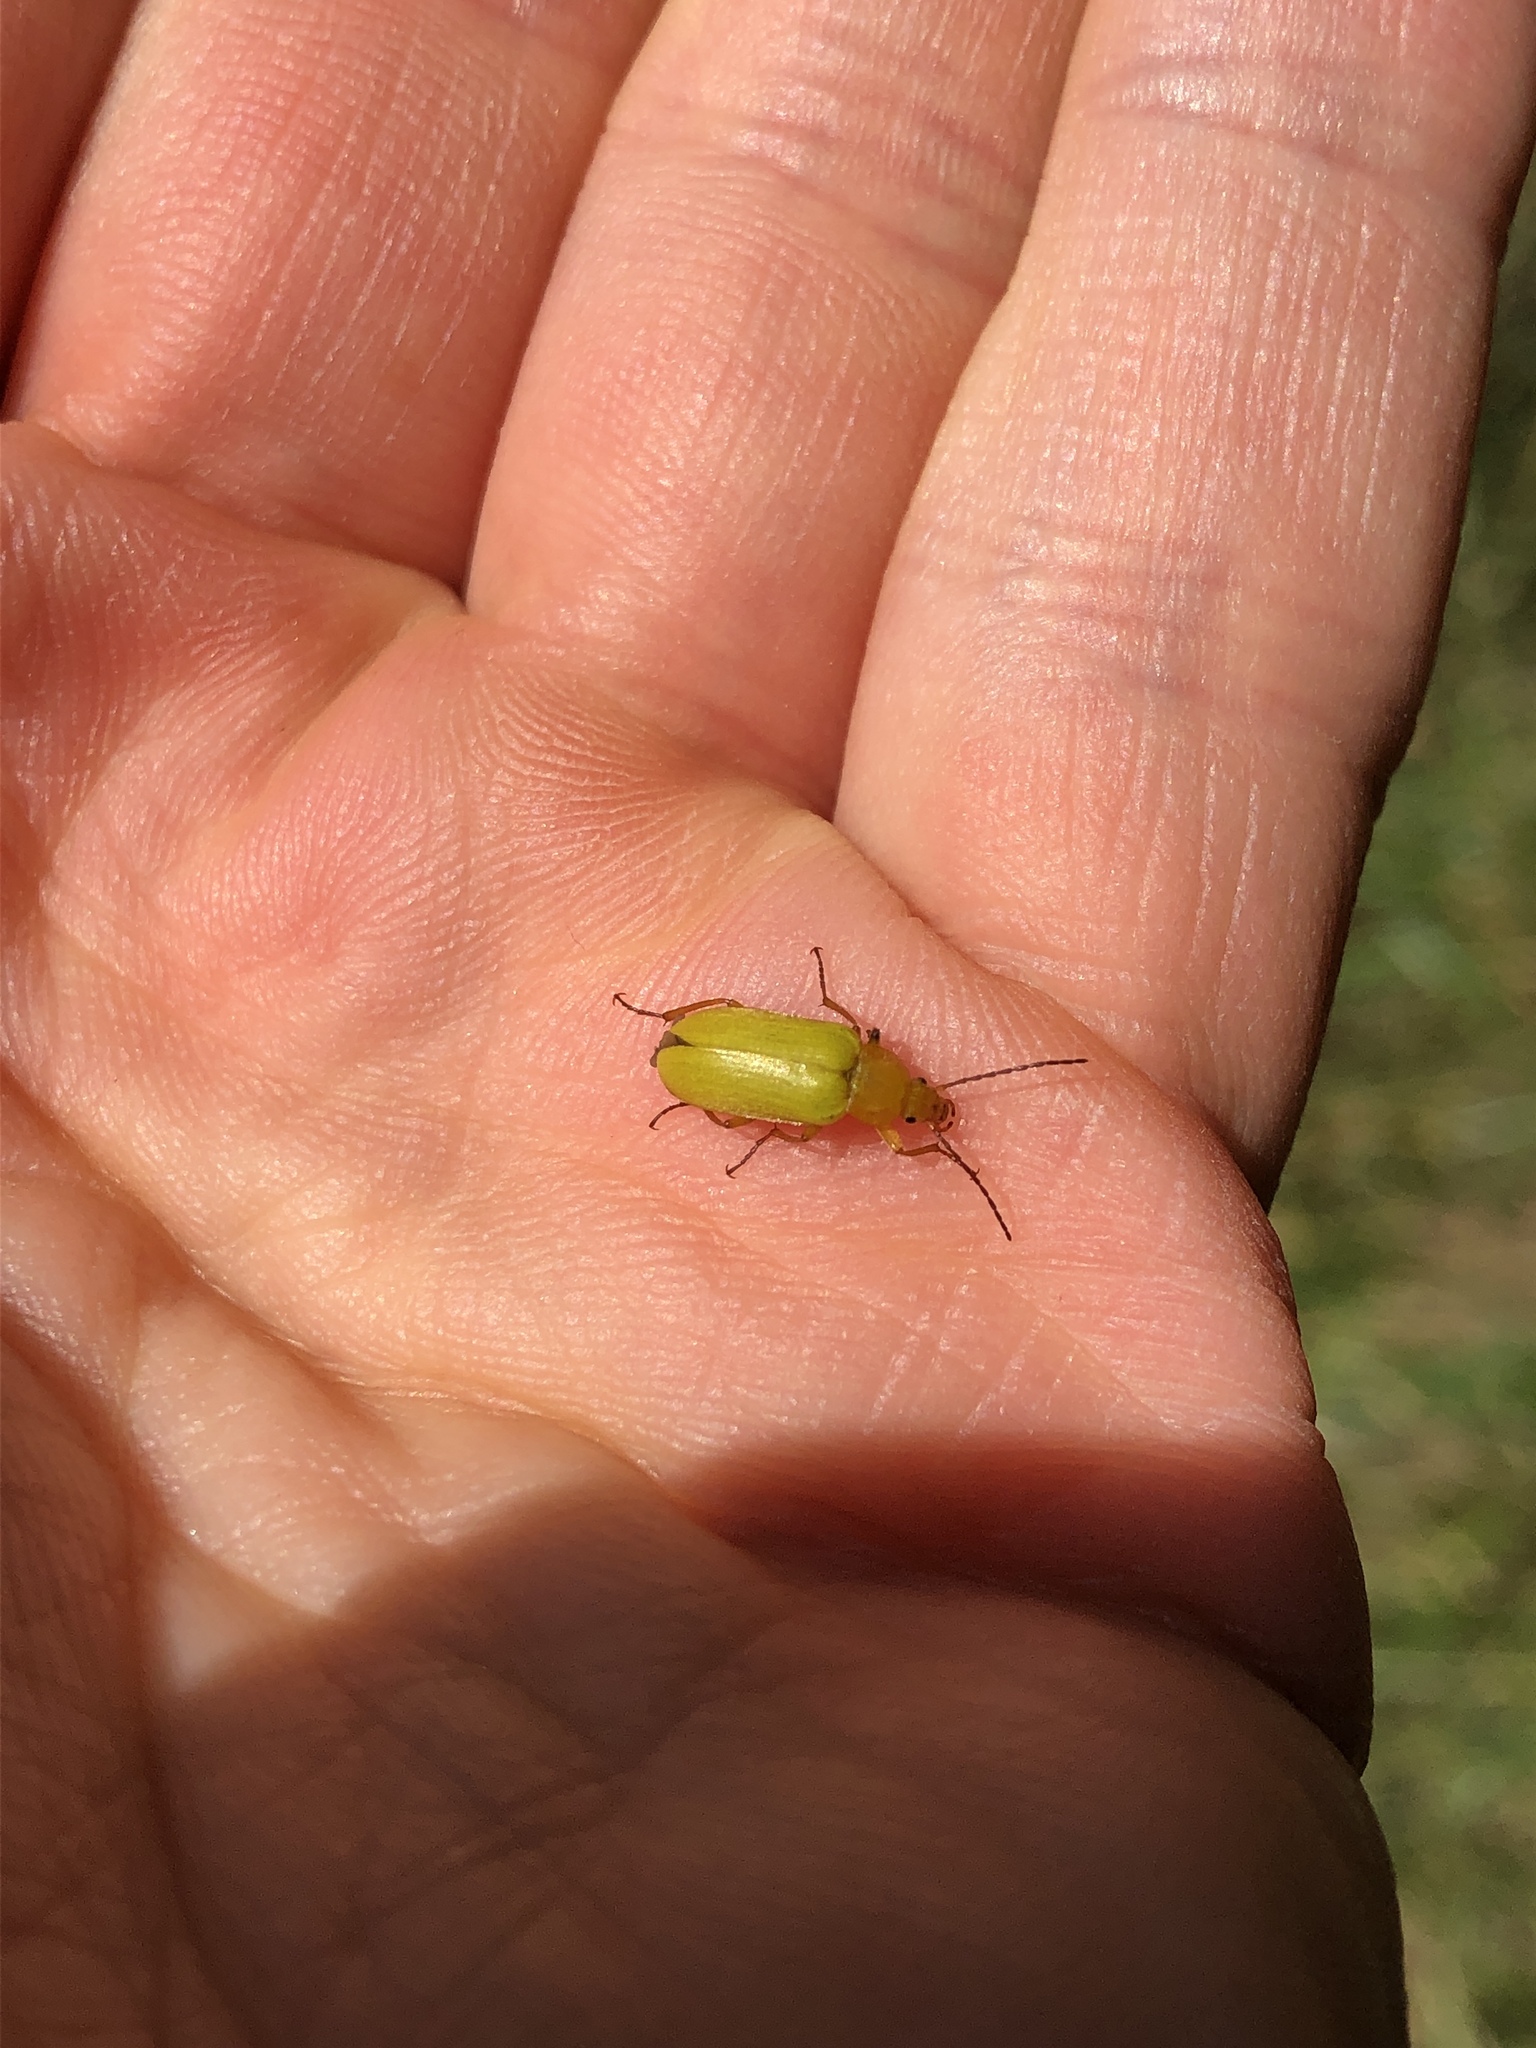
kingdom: Animalia
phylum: Arthropoda
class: Insecta
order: Coleoptera
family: Tenebrionidae
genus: Cteniopus
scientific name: Cteniopus sulphureus
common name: Sulphur beetle
